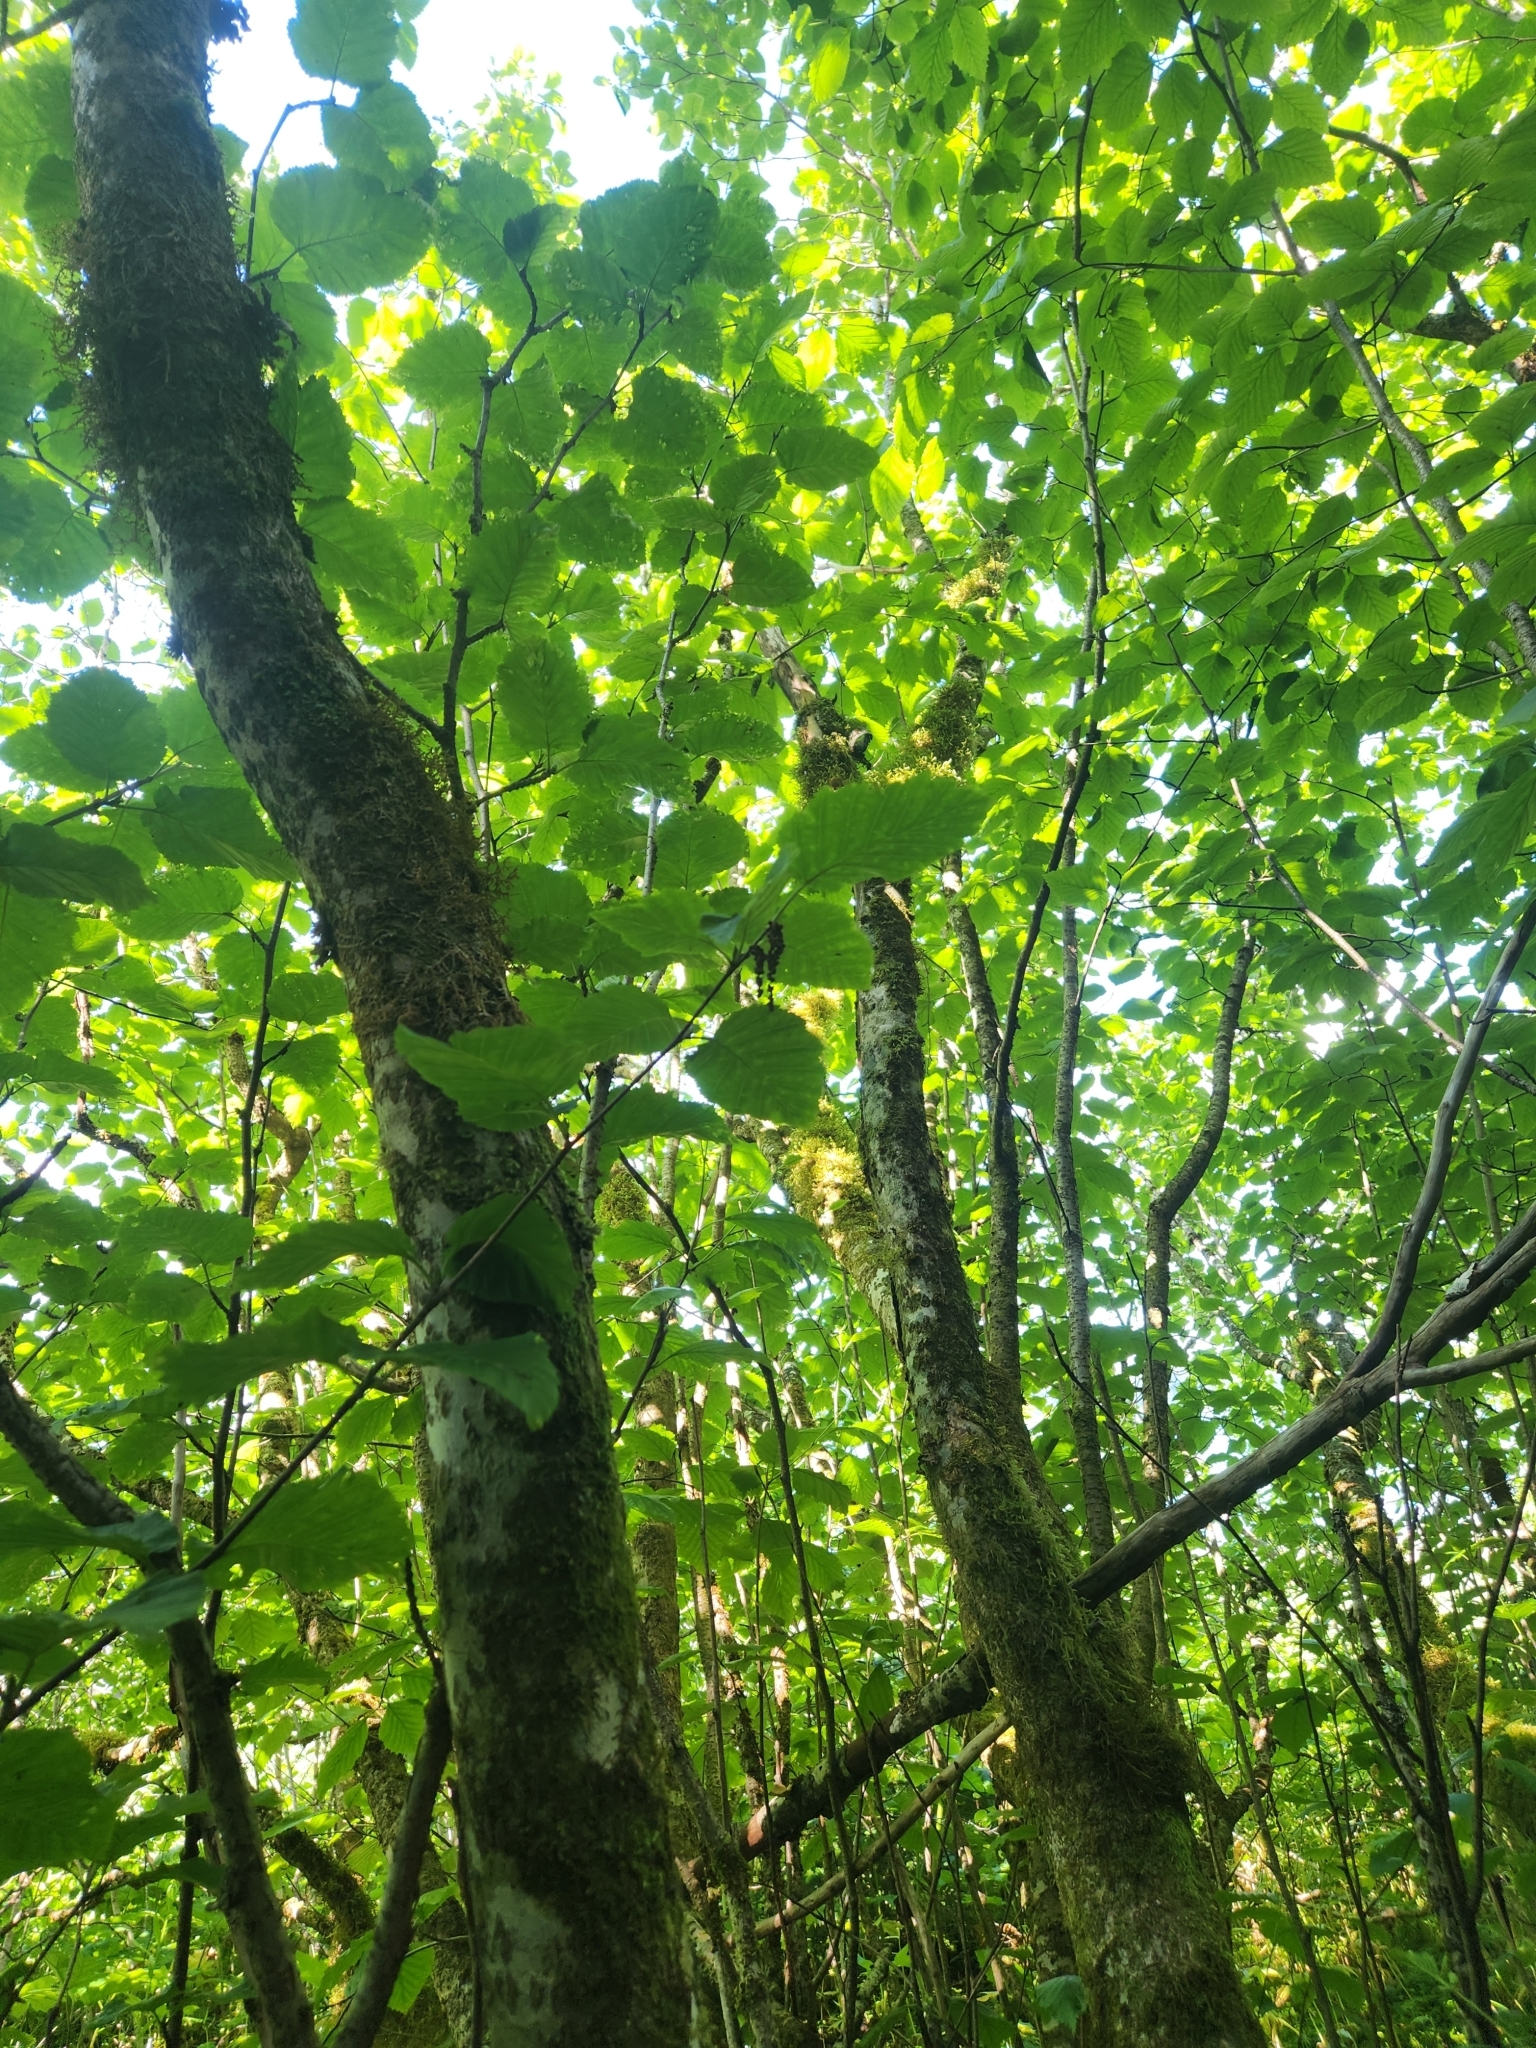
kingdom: Plantae
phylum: Tracheophyta
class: Magnoliopsida
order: Fagales
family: Betulaceae
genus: Alnus
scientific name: Alnus alnobetula
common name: Green alder
